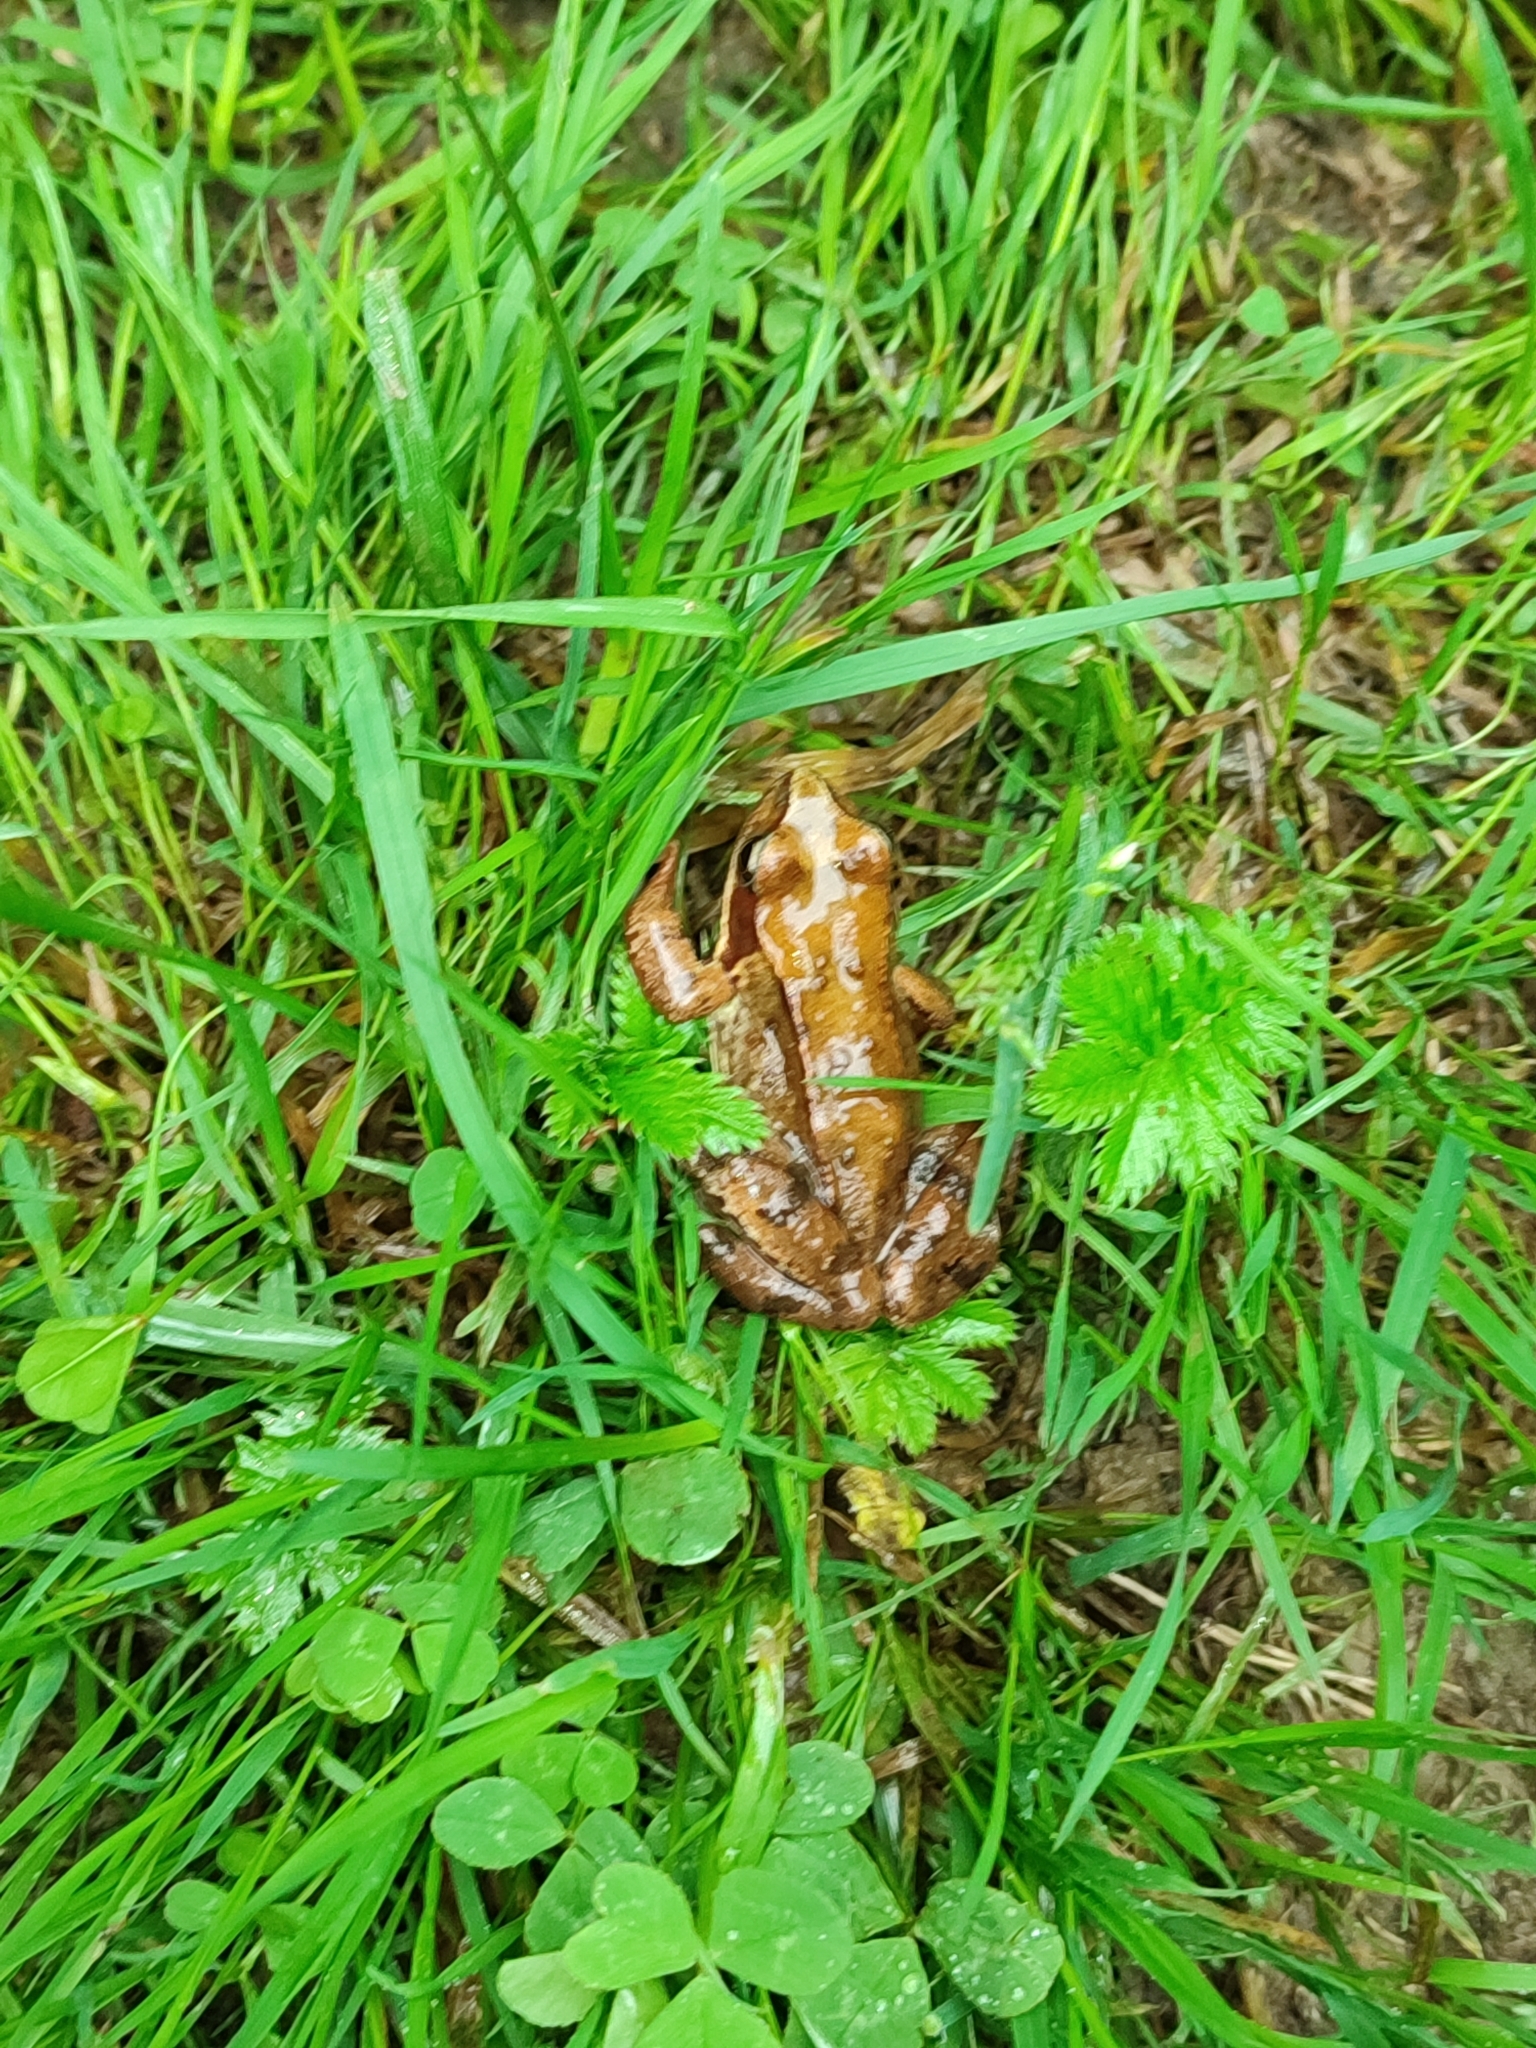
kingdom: Animalia
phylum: Chordata
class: Amphibia
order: Anura
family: Ranidae
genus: Rana
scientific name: Rana temporaria
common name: Common frog
